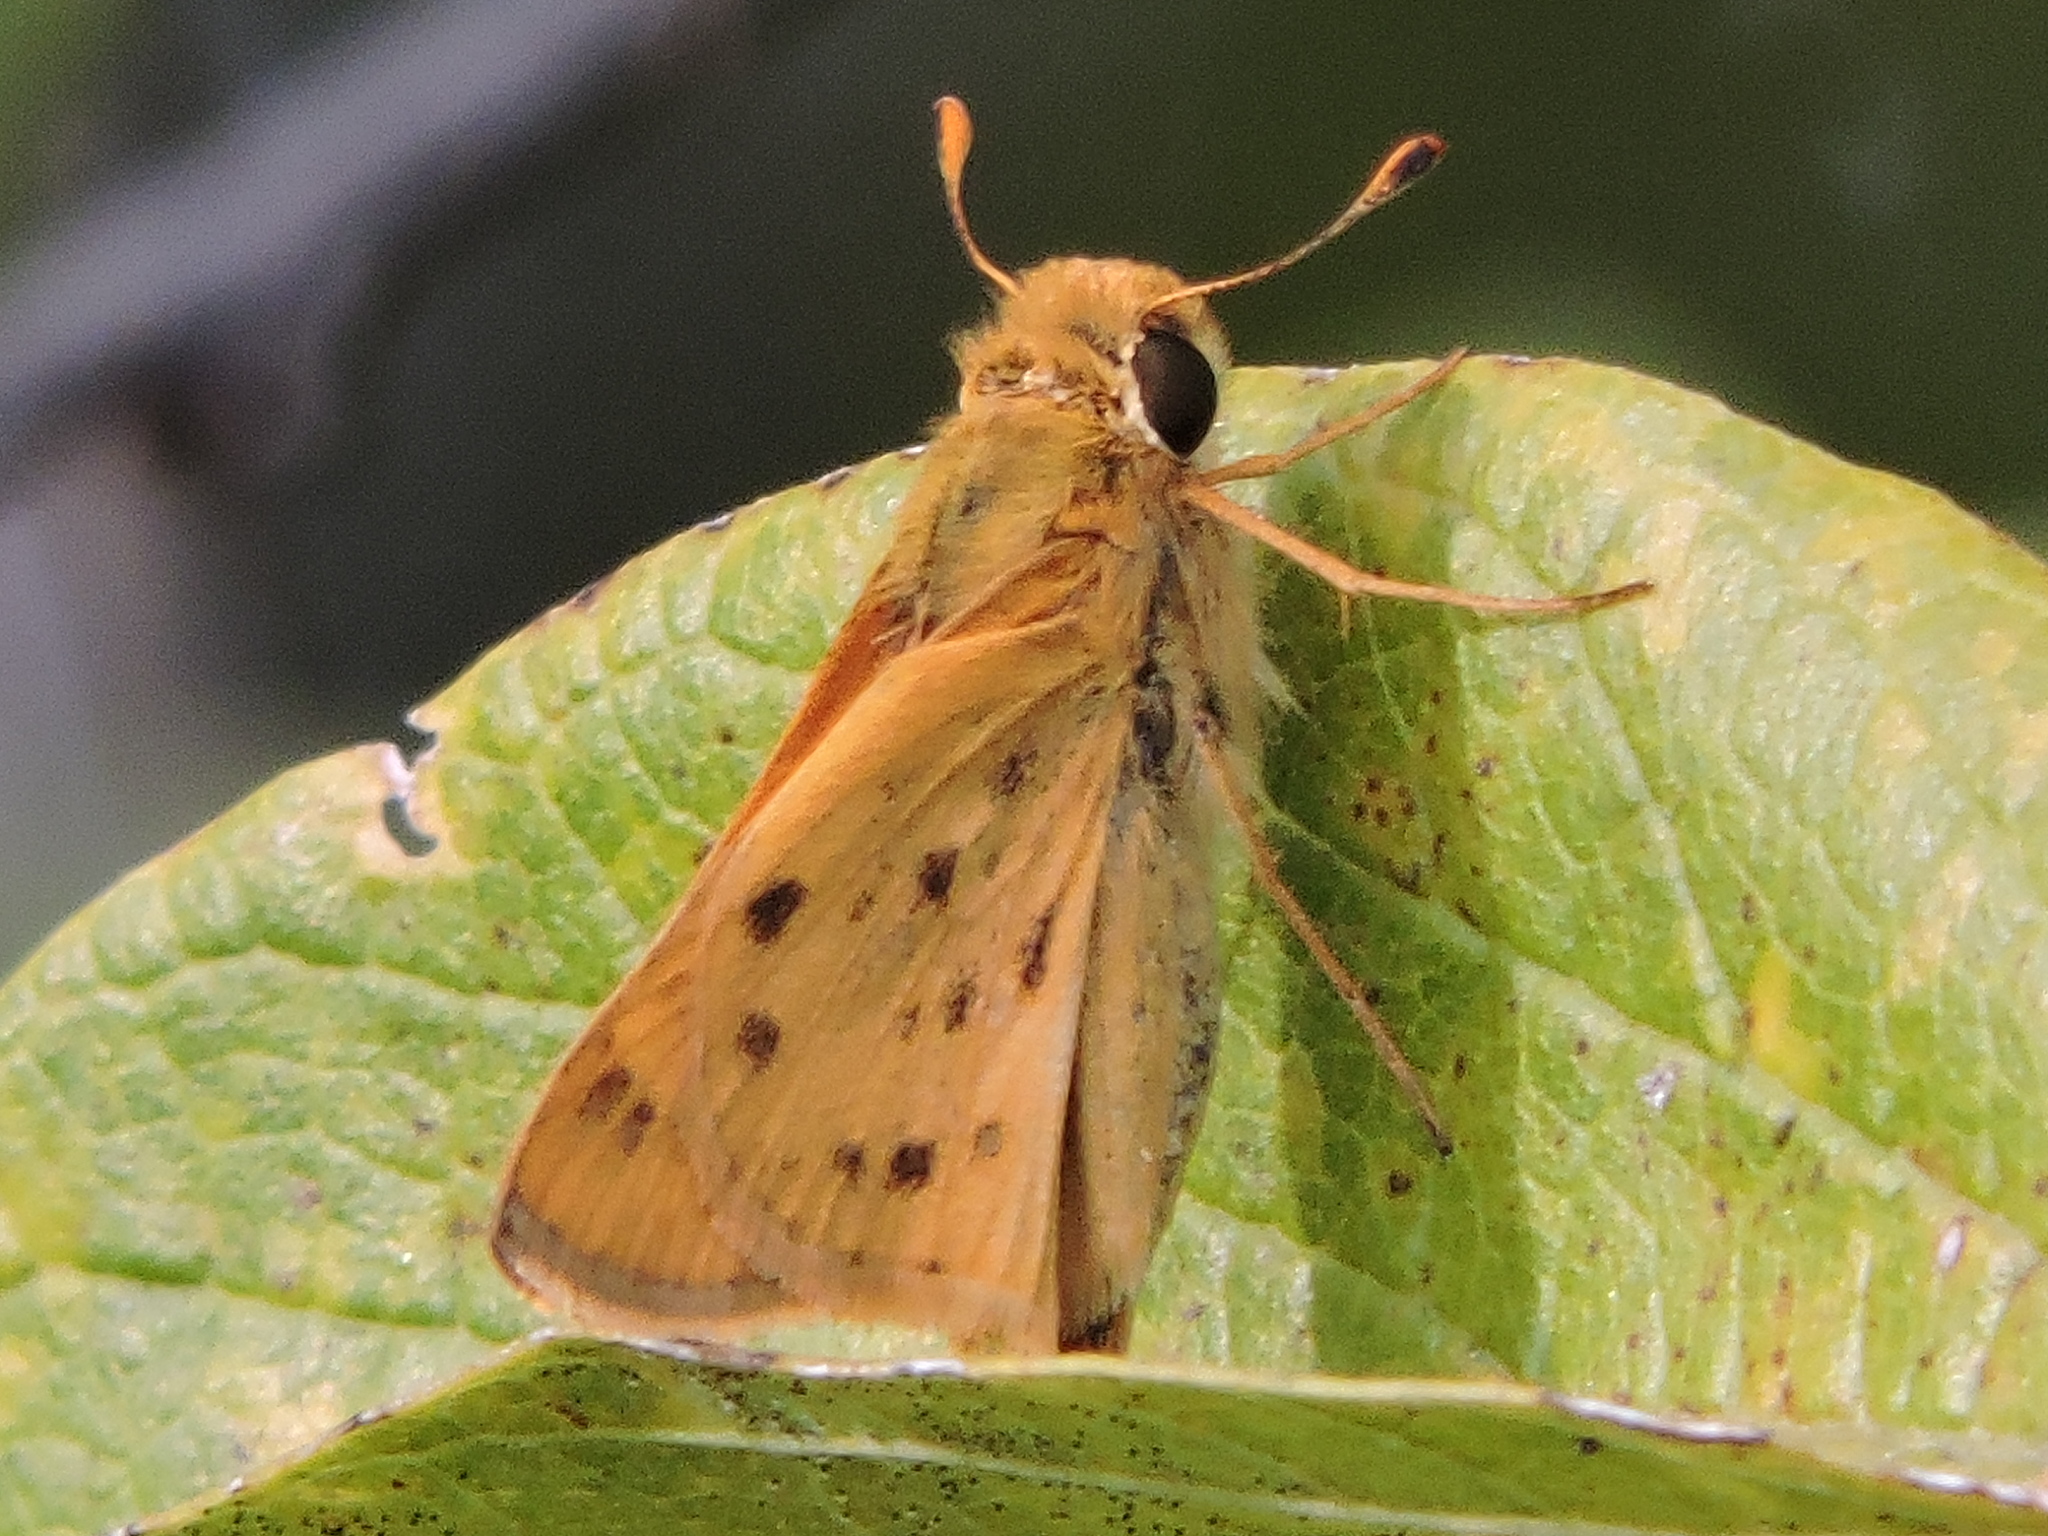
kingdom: Animalia
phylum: Arthropoda
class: Insecta
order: Lepidoptera
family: Hesperiidae
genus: Hylephila
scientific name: Hylephila phyleus
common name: Fiery skipper
